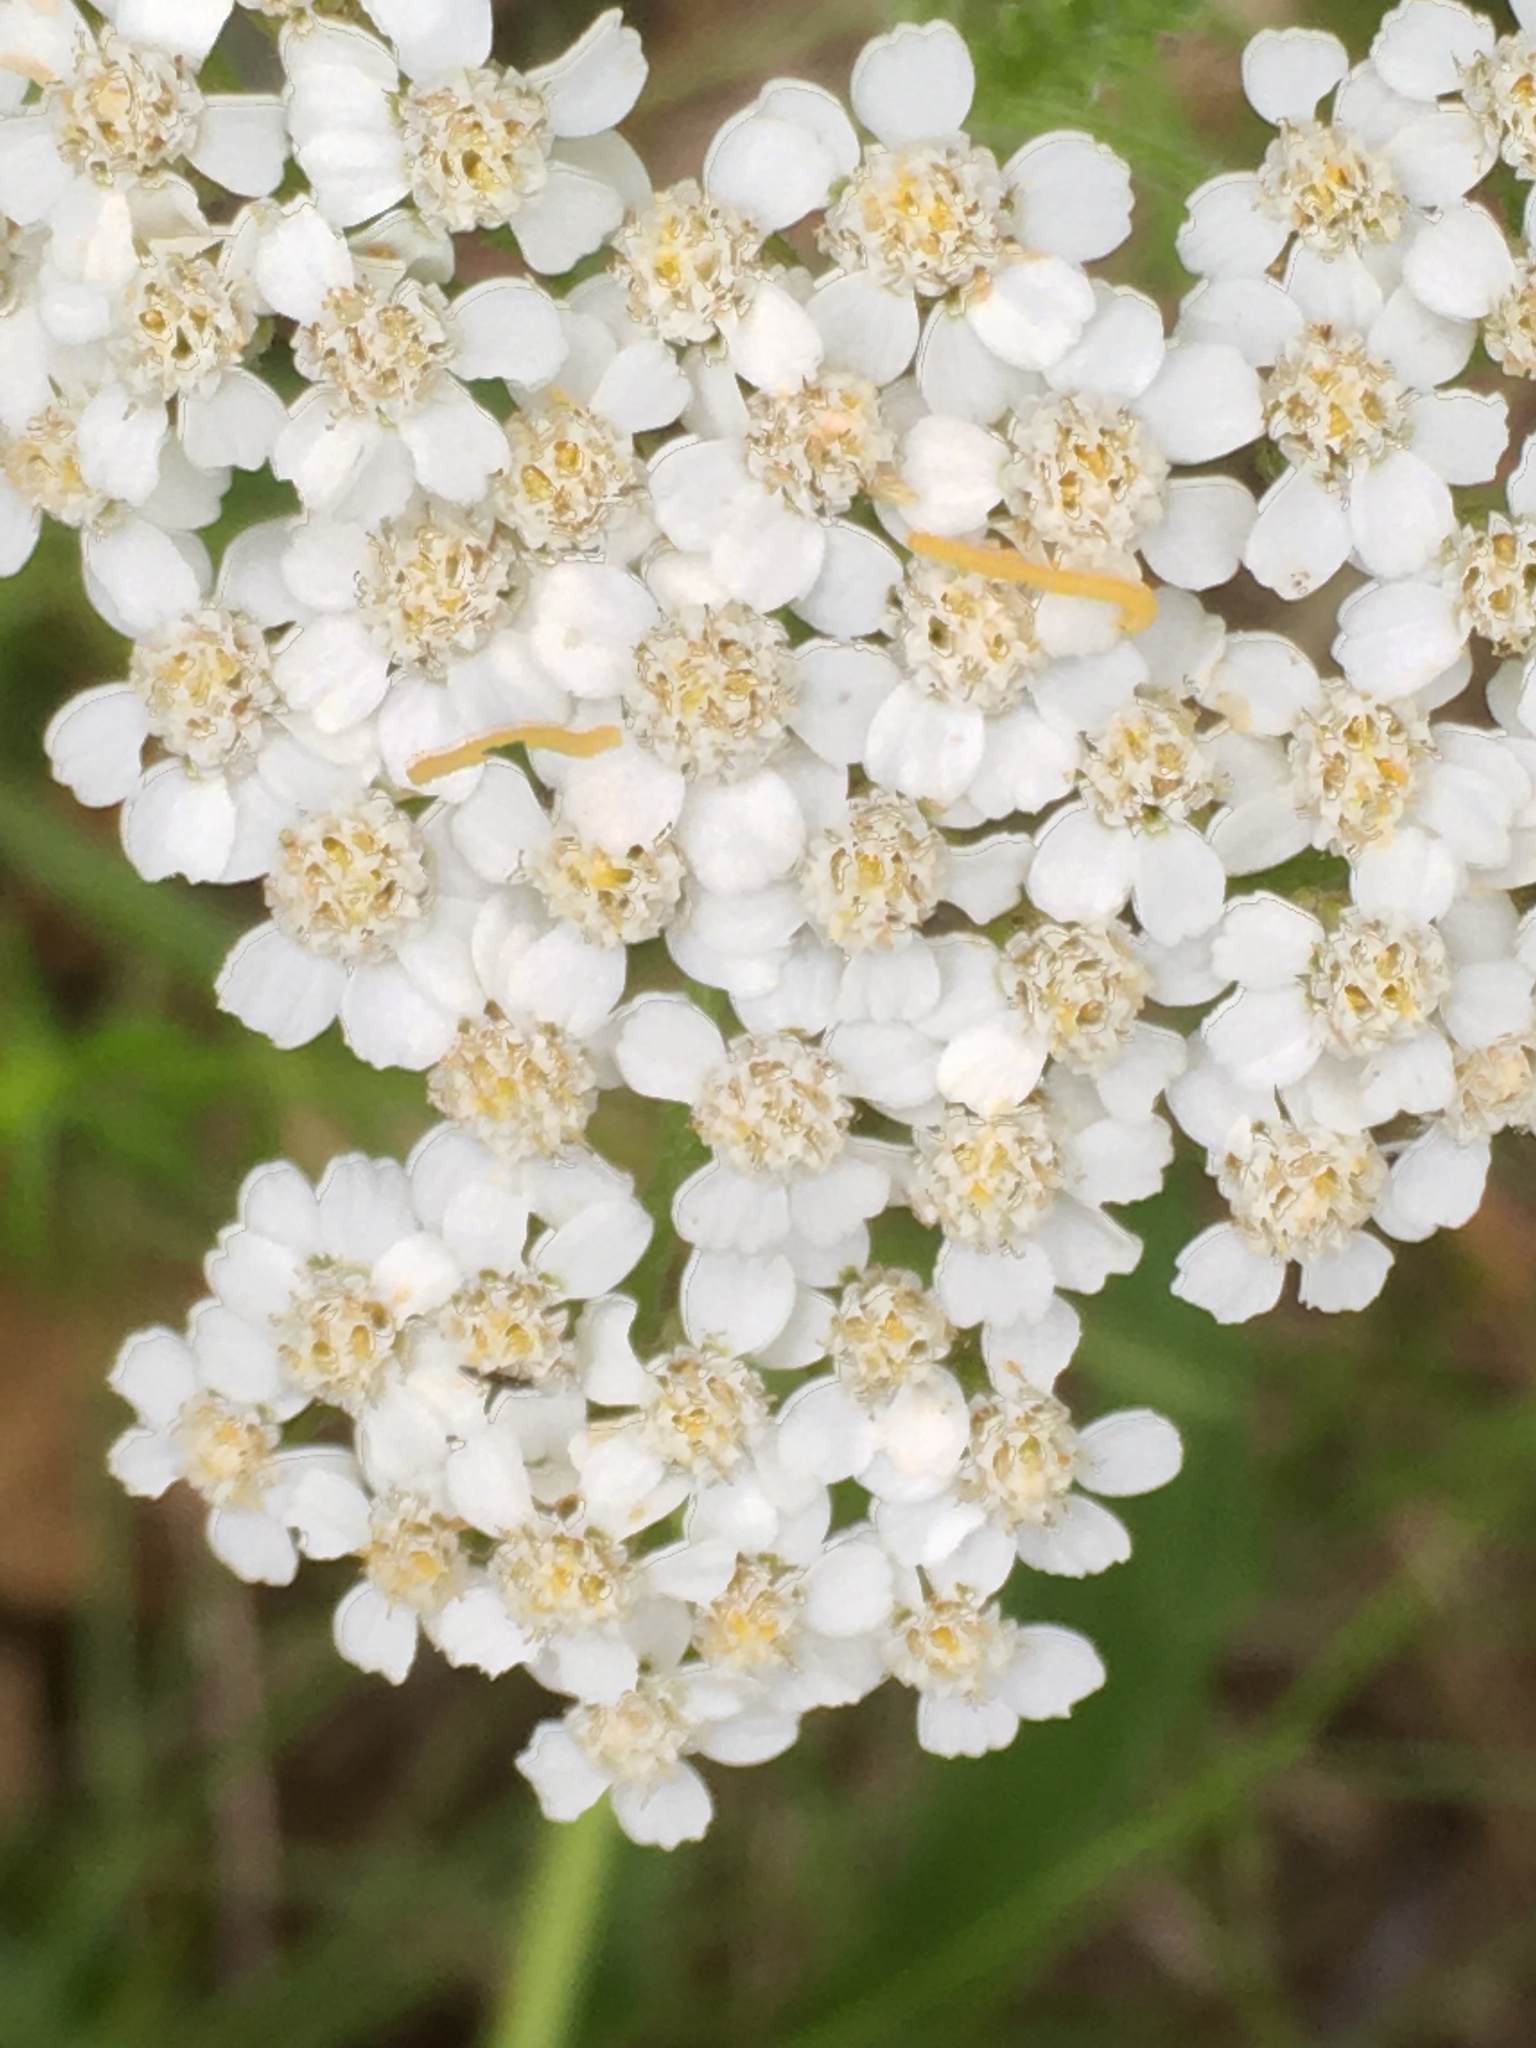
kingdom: Plantae
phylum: Tracheophyta
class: Magnoliopsida
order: Asterales
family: Asteraceae
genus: Achillea
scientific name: Achillea millefolium
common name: Yarrow
